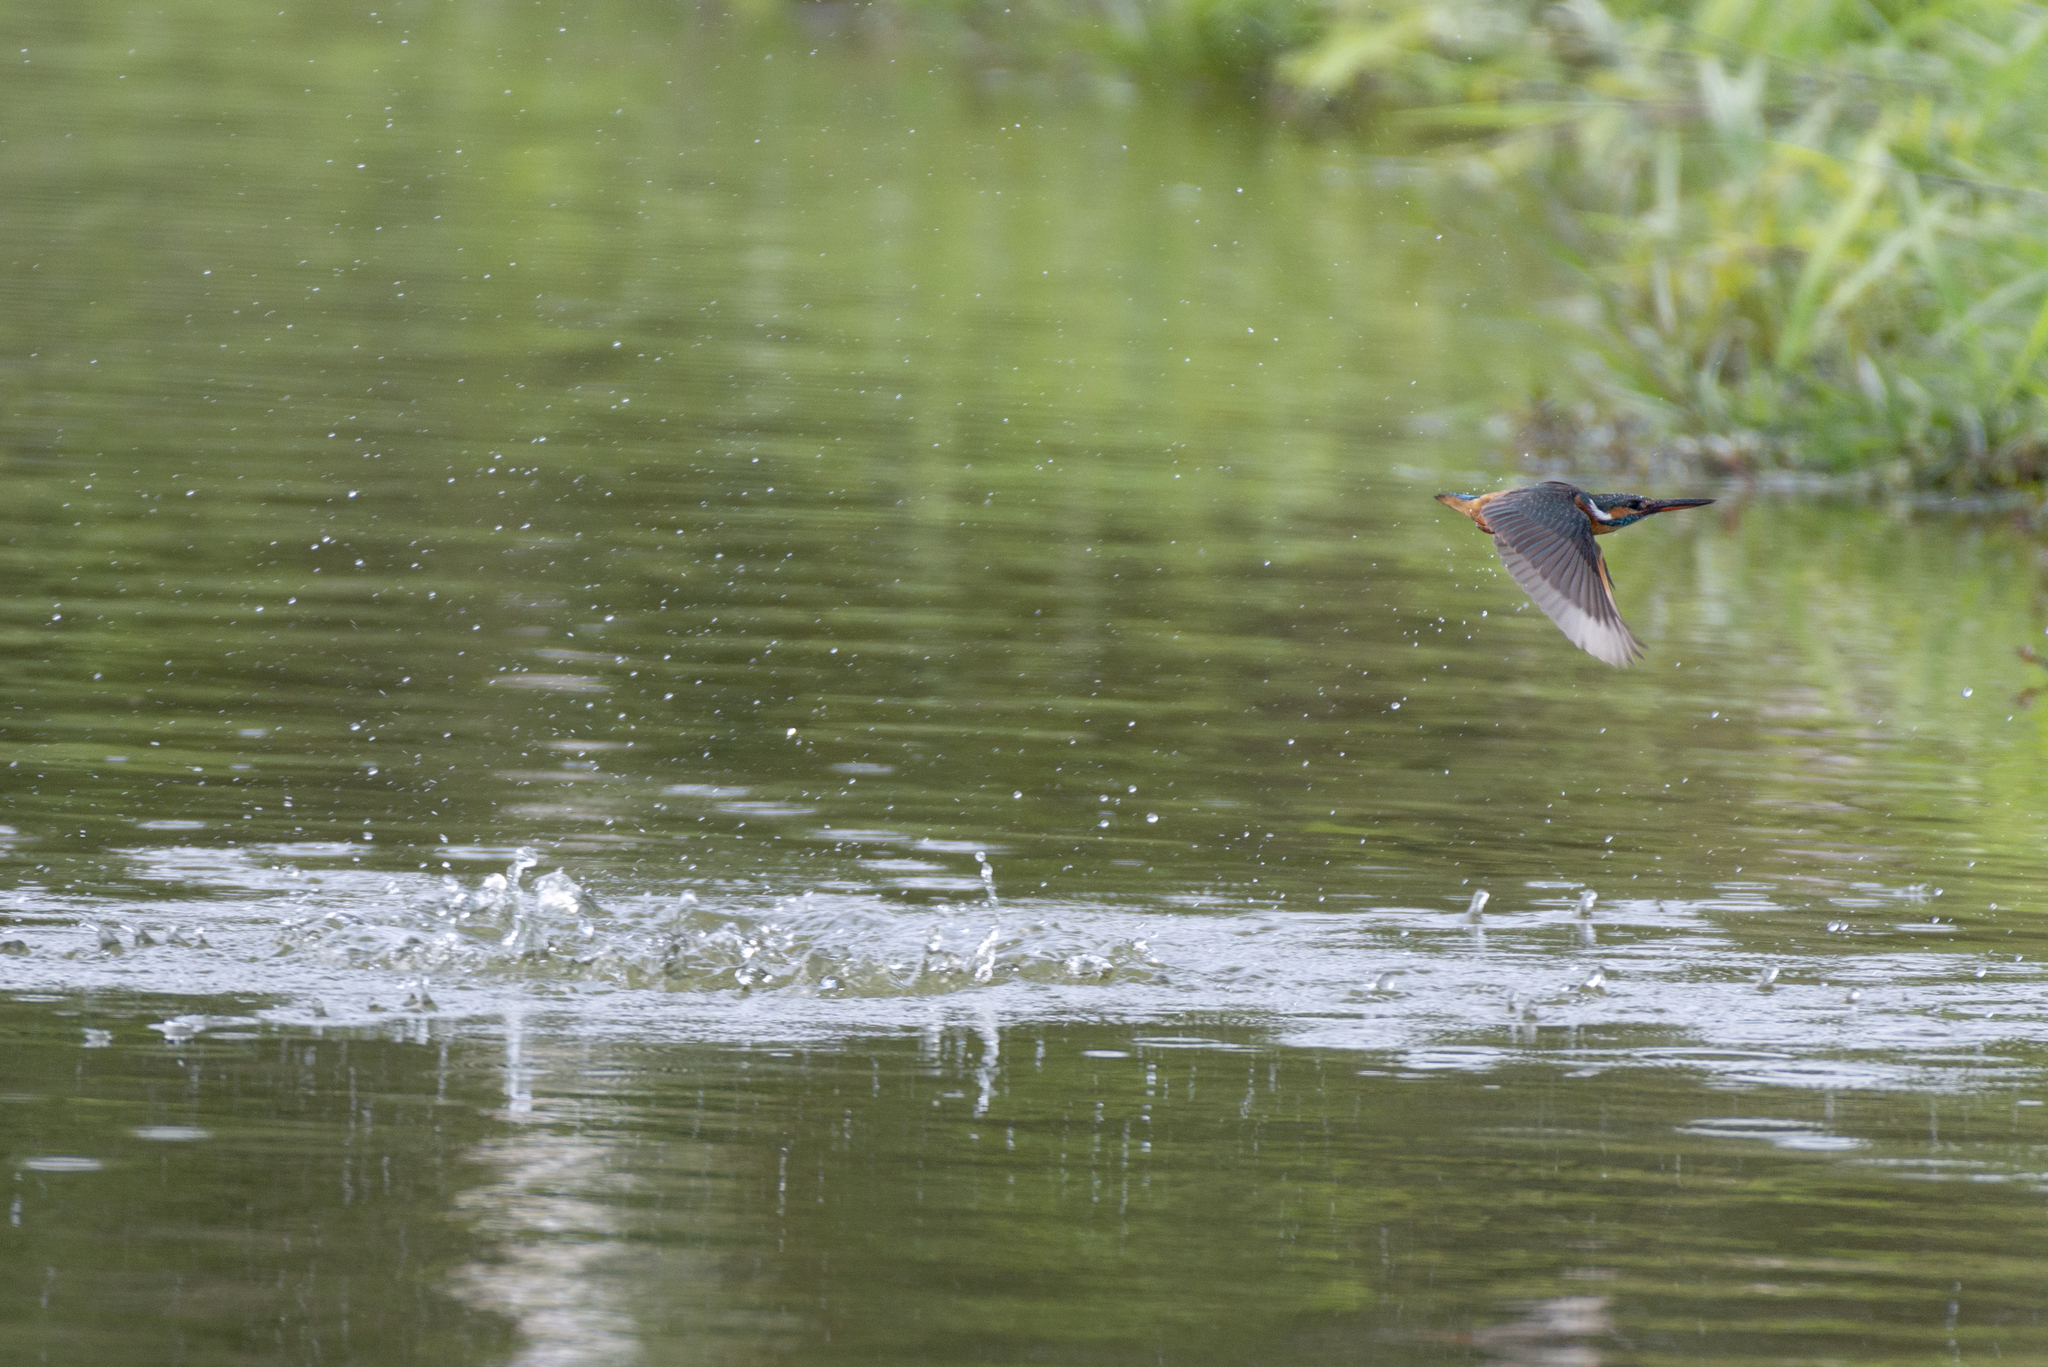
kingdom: Animalia
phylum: Chordata
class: Aves
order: Coraciiformes
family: Alcedinidae
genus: Alcedo
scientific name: Alcedo atthis
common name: Common kingfisher
